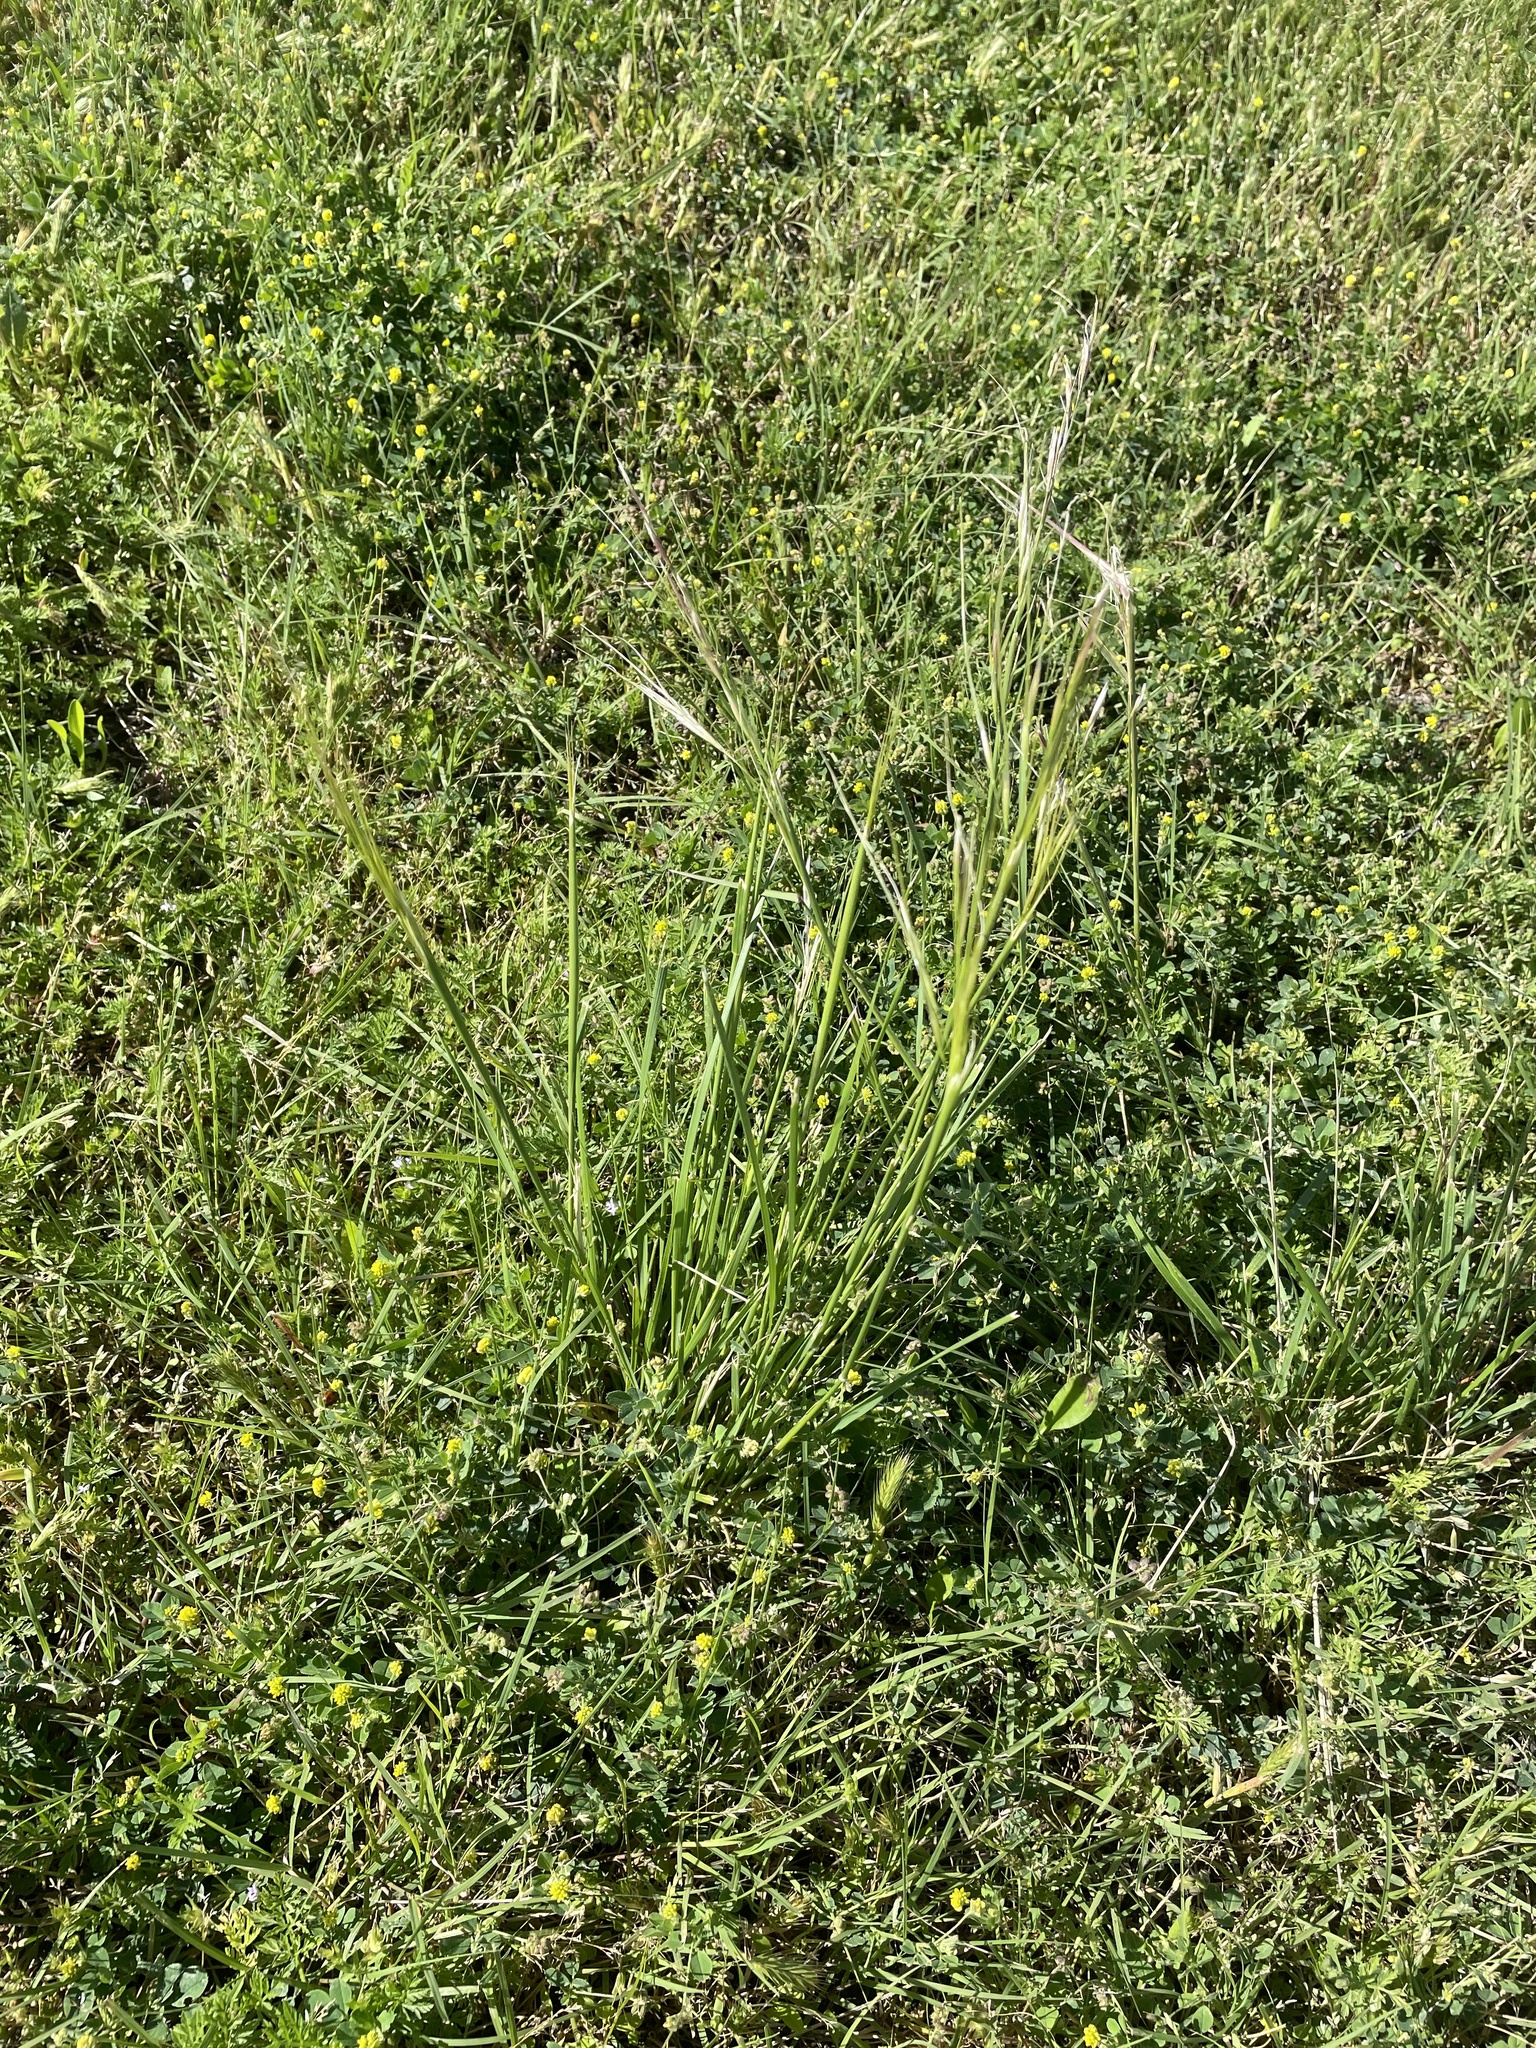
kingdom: Plantae
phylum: Tracheophyta
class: Liliopsida
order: Poales
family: Poaceae
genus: Nassella
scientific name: Nassella leucotricha
